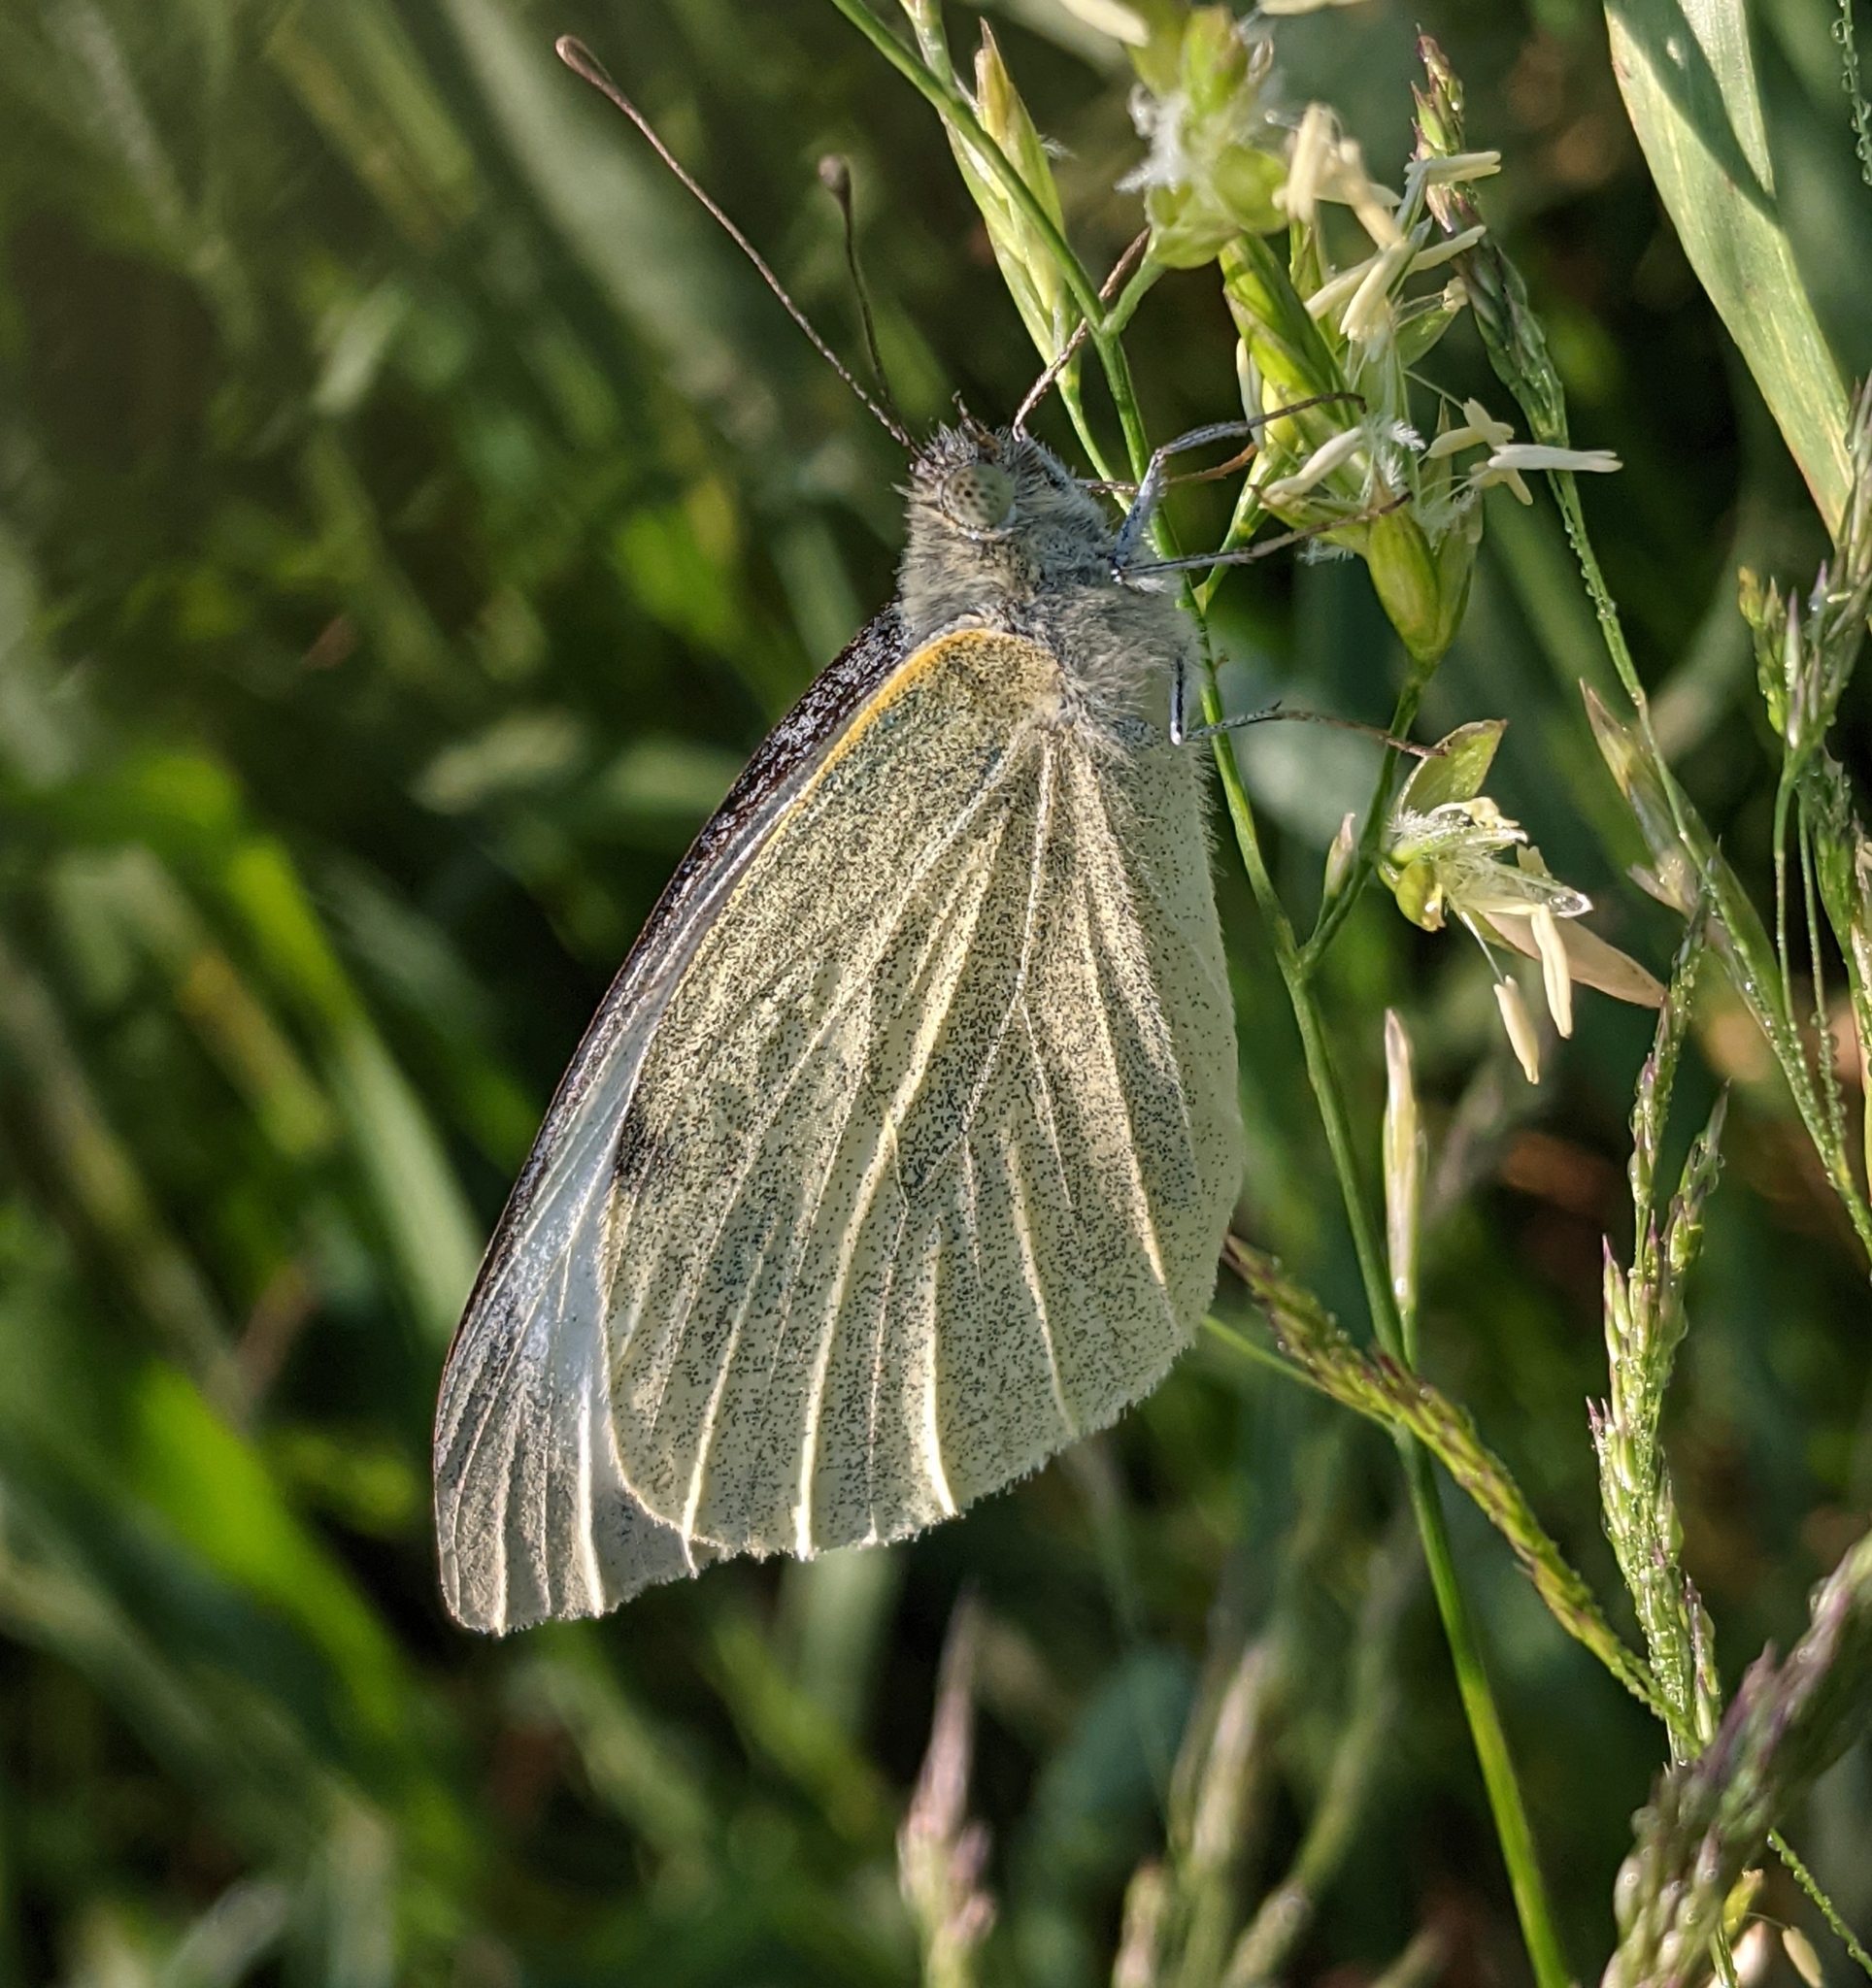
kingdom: Animalia
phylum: Arthropoda
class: Insecta
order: Lepidoptera
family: Pieridae
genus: Pieris
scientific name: Pieris brassicae
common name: Large white
